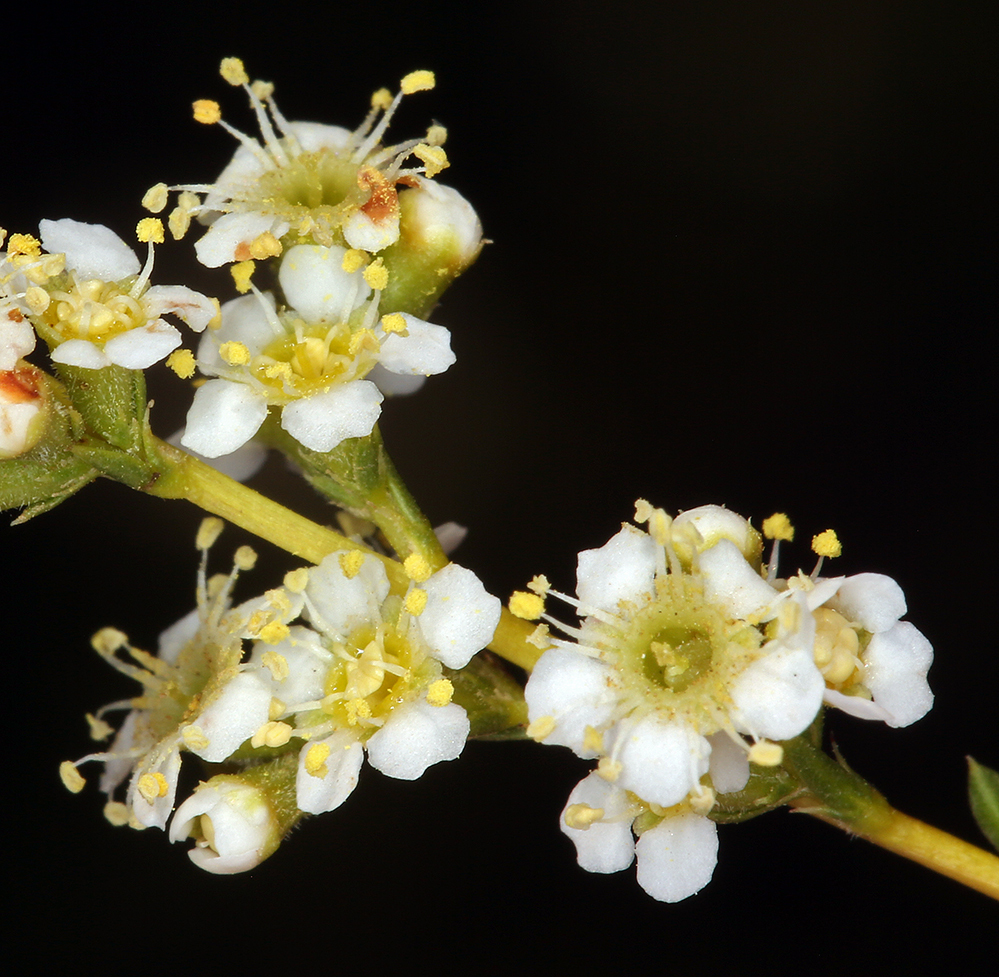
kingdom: Plantae
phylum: Tracheophyta
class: Magnoliopsida
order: Rosales
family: Rosaceae
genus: Adenostoma
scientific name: Adenostoma fasciculatum
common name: Chamise
